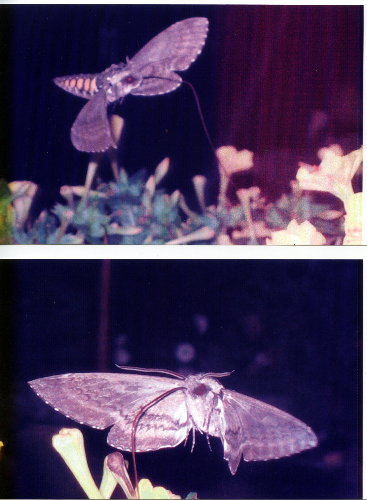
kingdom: Animalia
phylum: Arthropoda
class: Insecta
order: Lepidoptera
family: Sphingidae
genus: Manduca
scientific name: Manduca sexta
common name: Carolina sphinx
